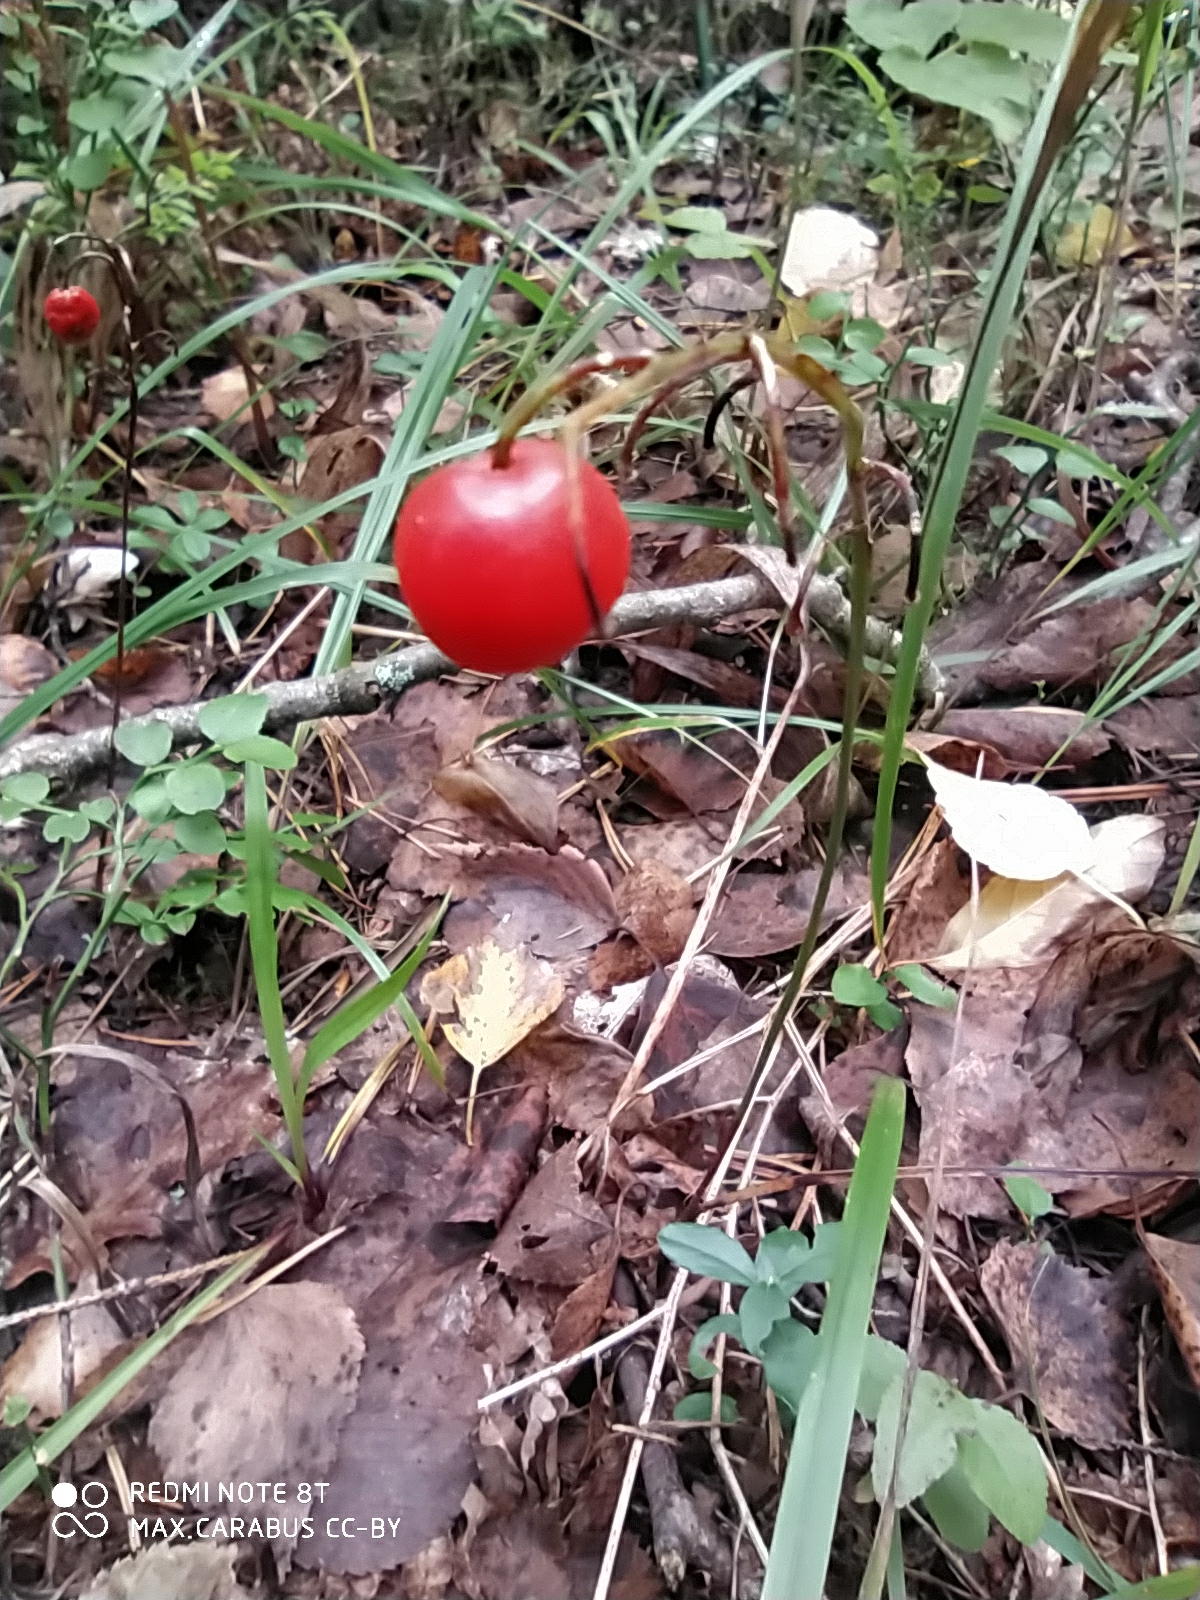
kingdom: Plantae
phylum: Tracheophyta
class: Liliopsida
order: Asparagales
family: Asparagaceae
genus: Convallaria
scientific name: Convallaria majalis
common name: Lily-of-the-valley
